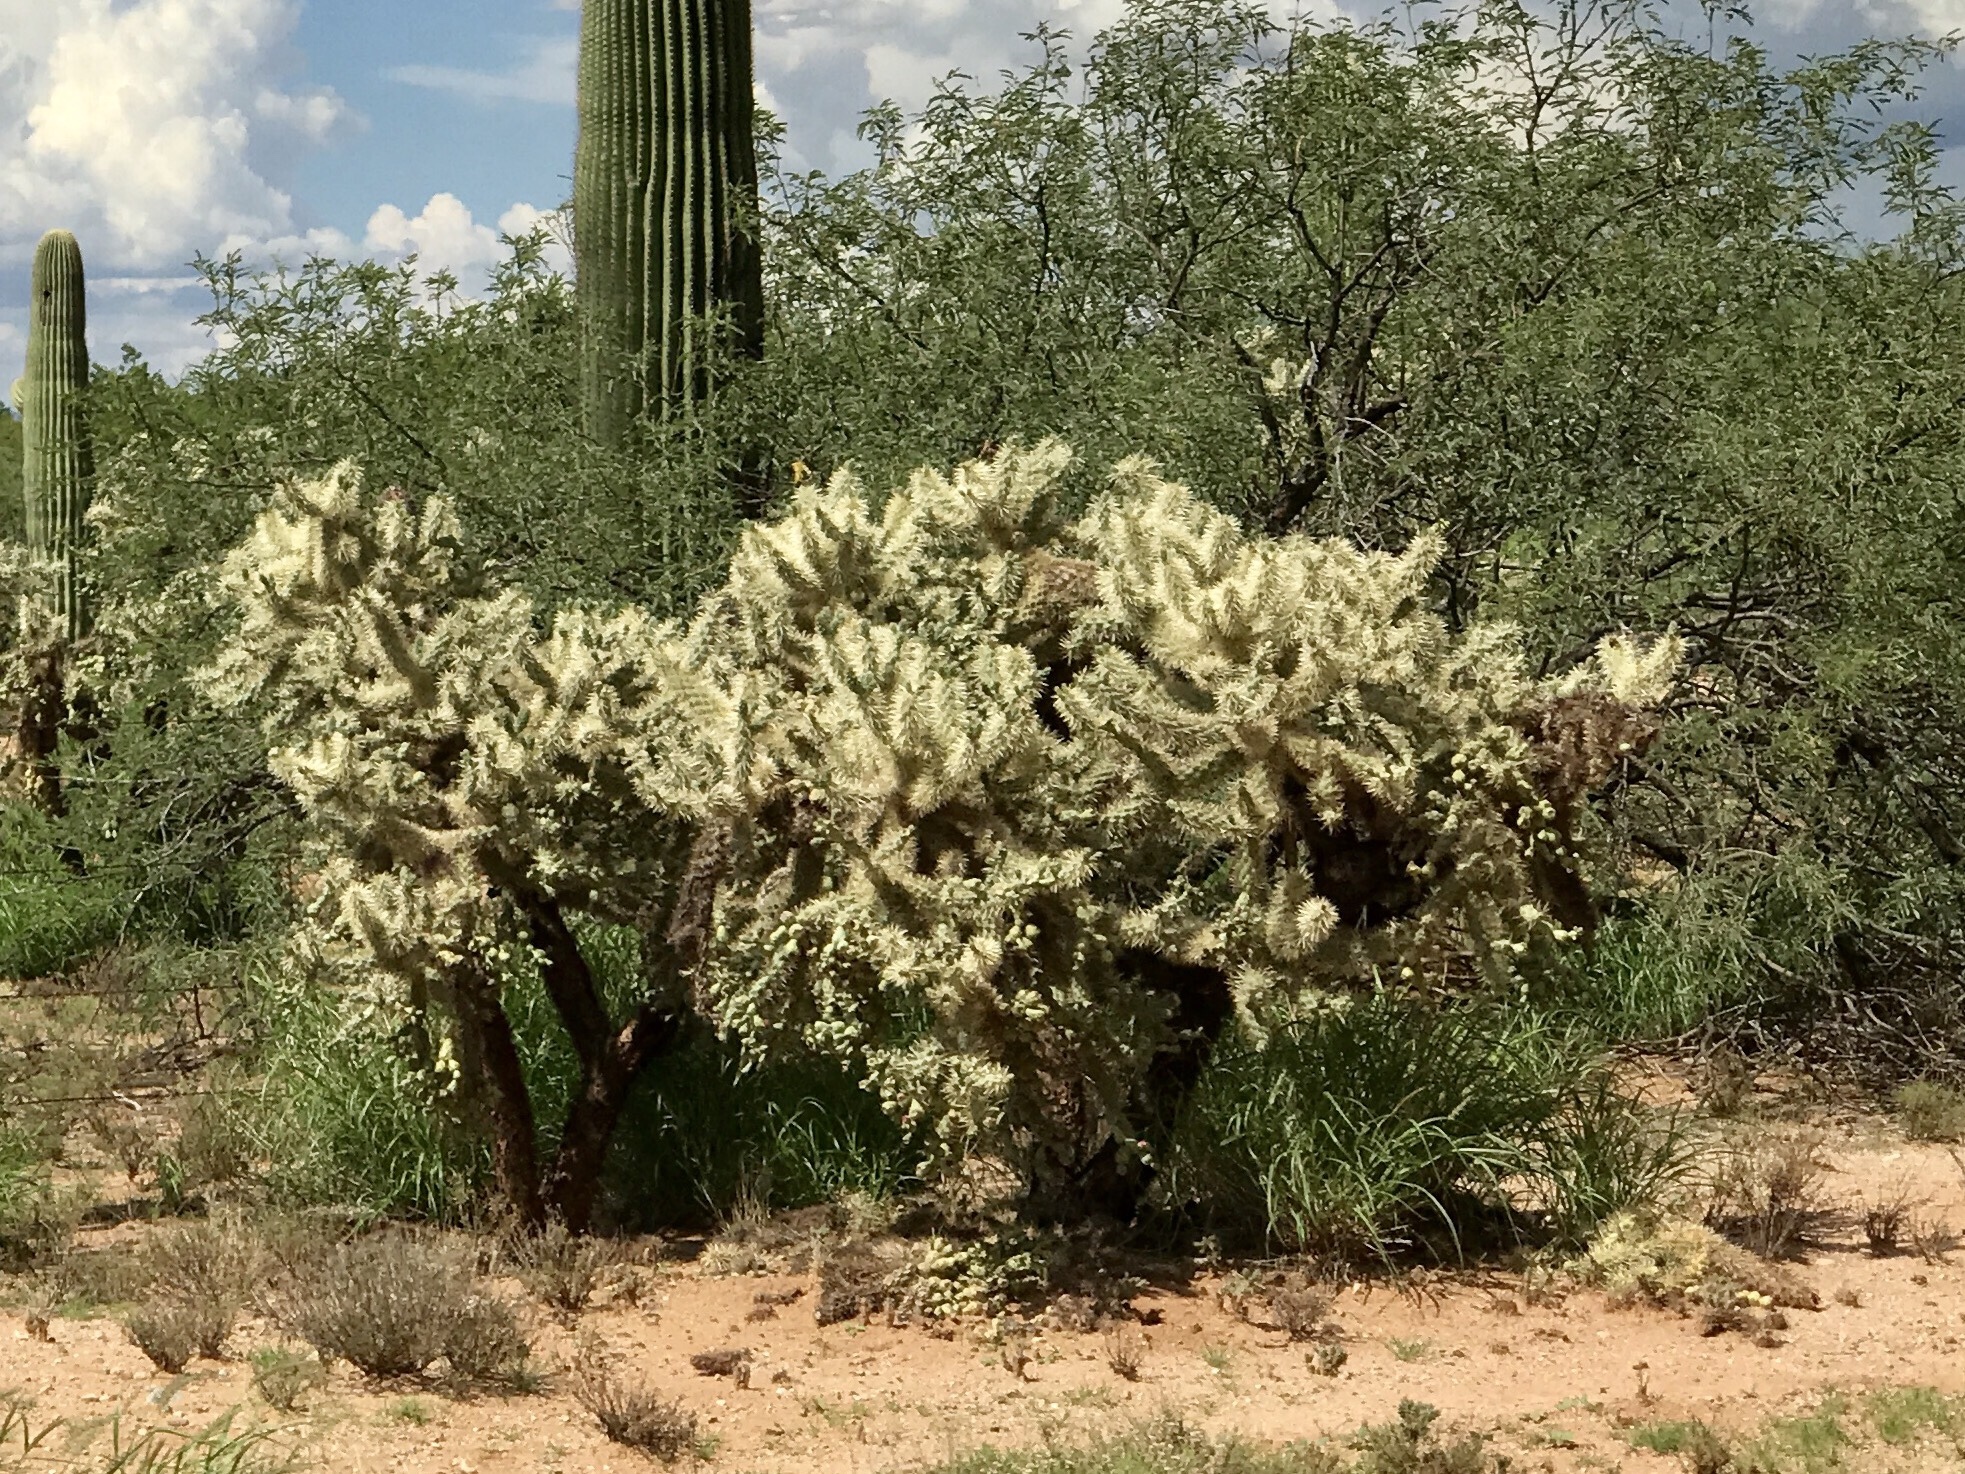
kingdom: Plantae
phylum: Tracheophyta
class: Magnoliopsida
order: Caryophyllales
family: Cactaceae
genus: Cylindropuntia
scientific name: Cylindropuntia fulgida
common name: Jumping cholla
